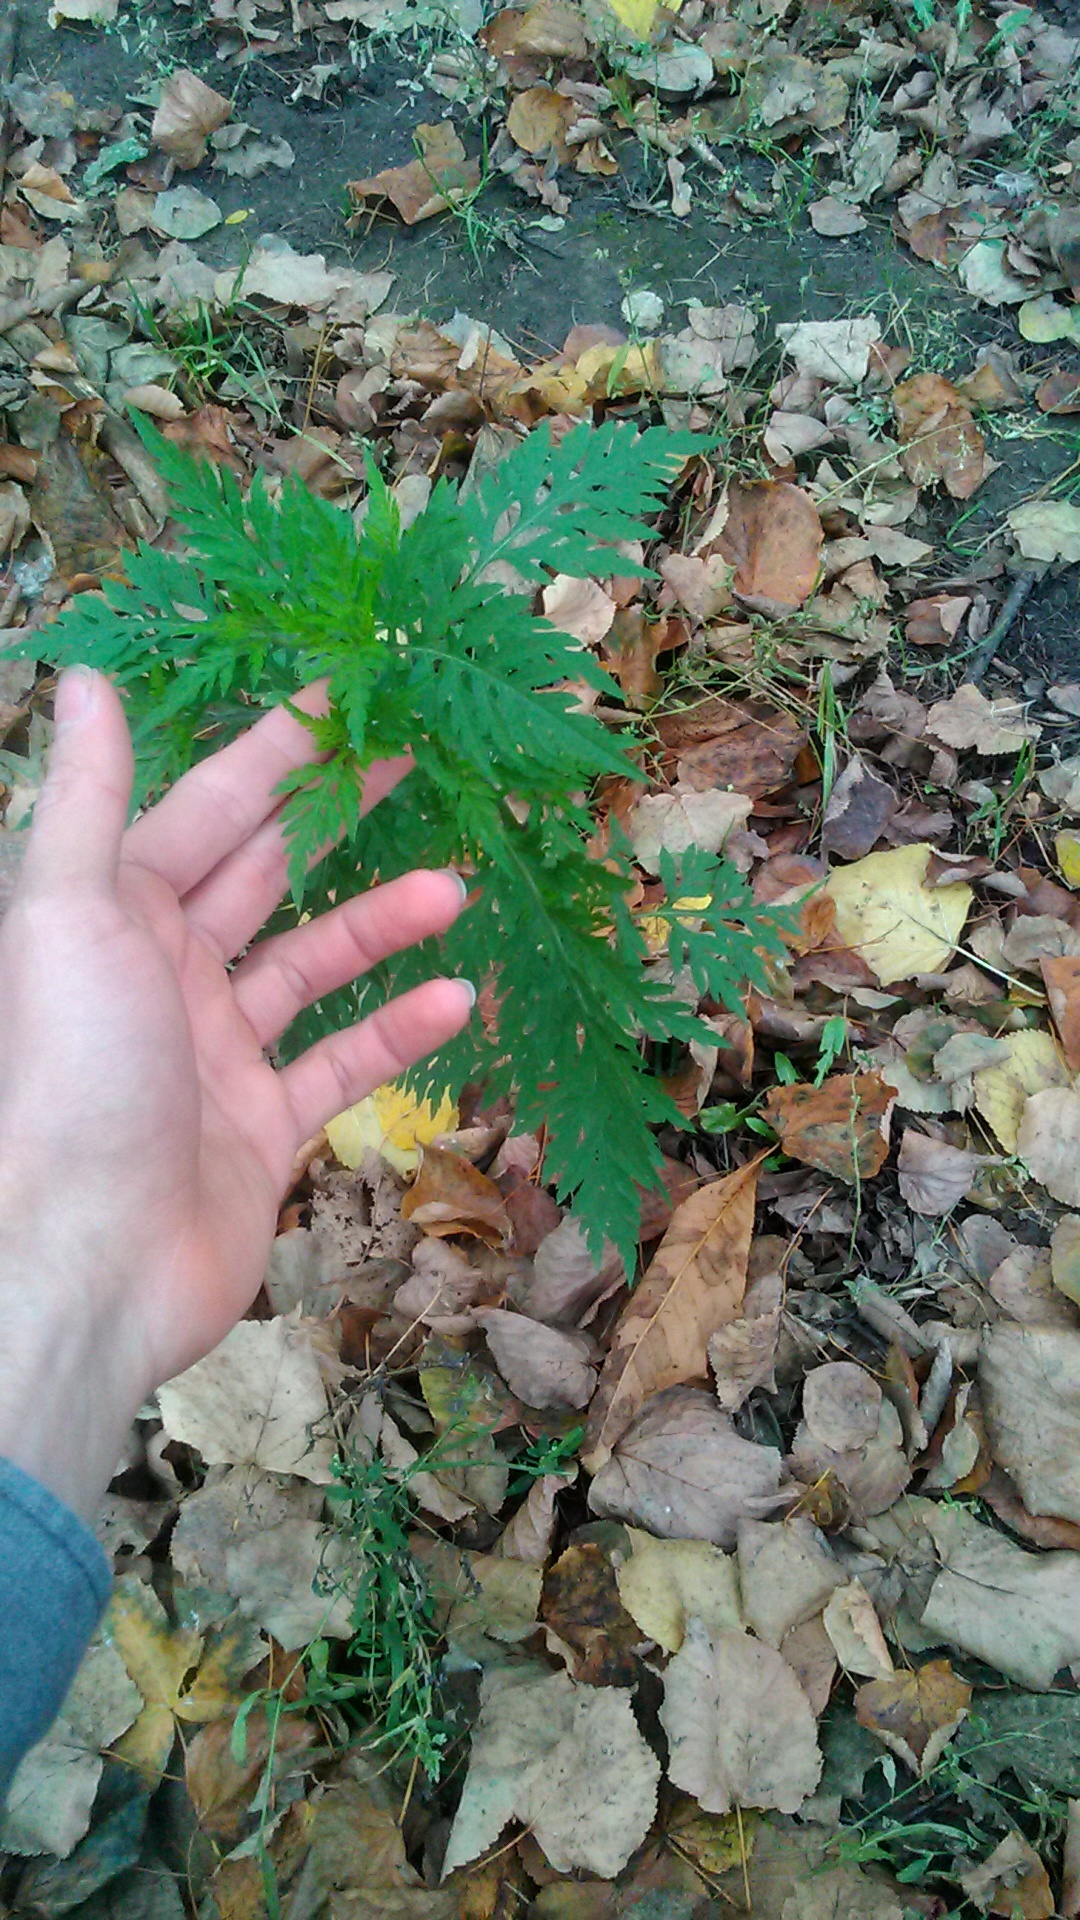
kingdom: Plantae
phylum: Tracheophyta
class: Magnoliopsida
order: Asterales
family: Asteraceae
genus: Ambrosia
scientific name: Ambrosia artemisiifolia
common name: Annual ragweed
